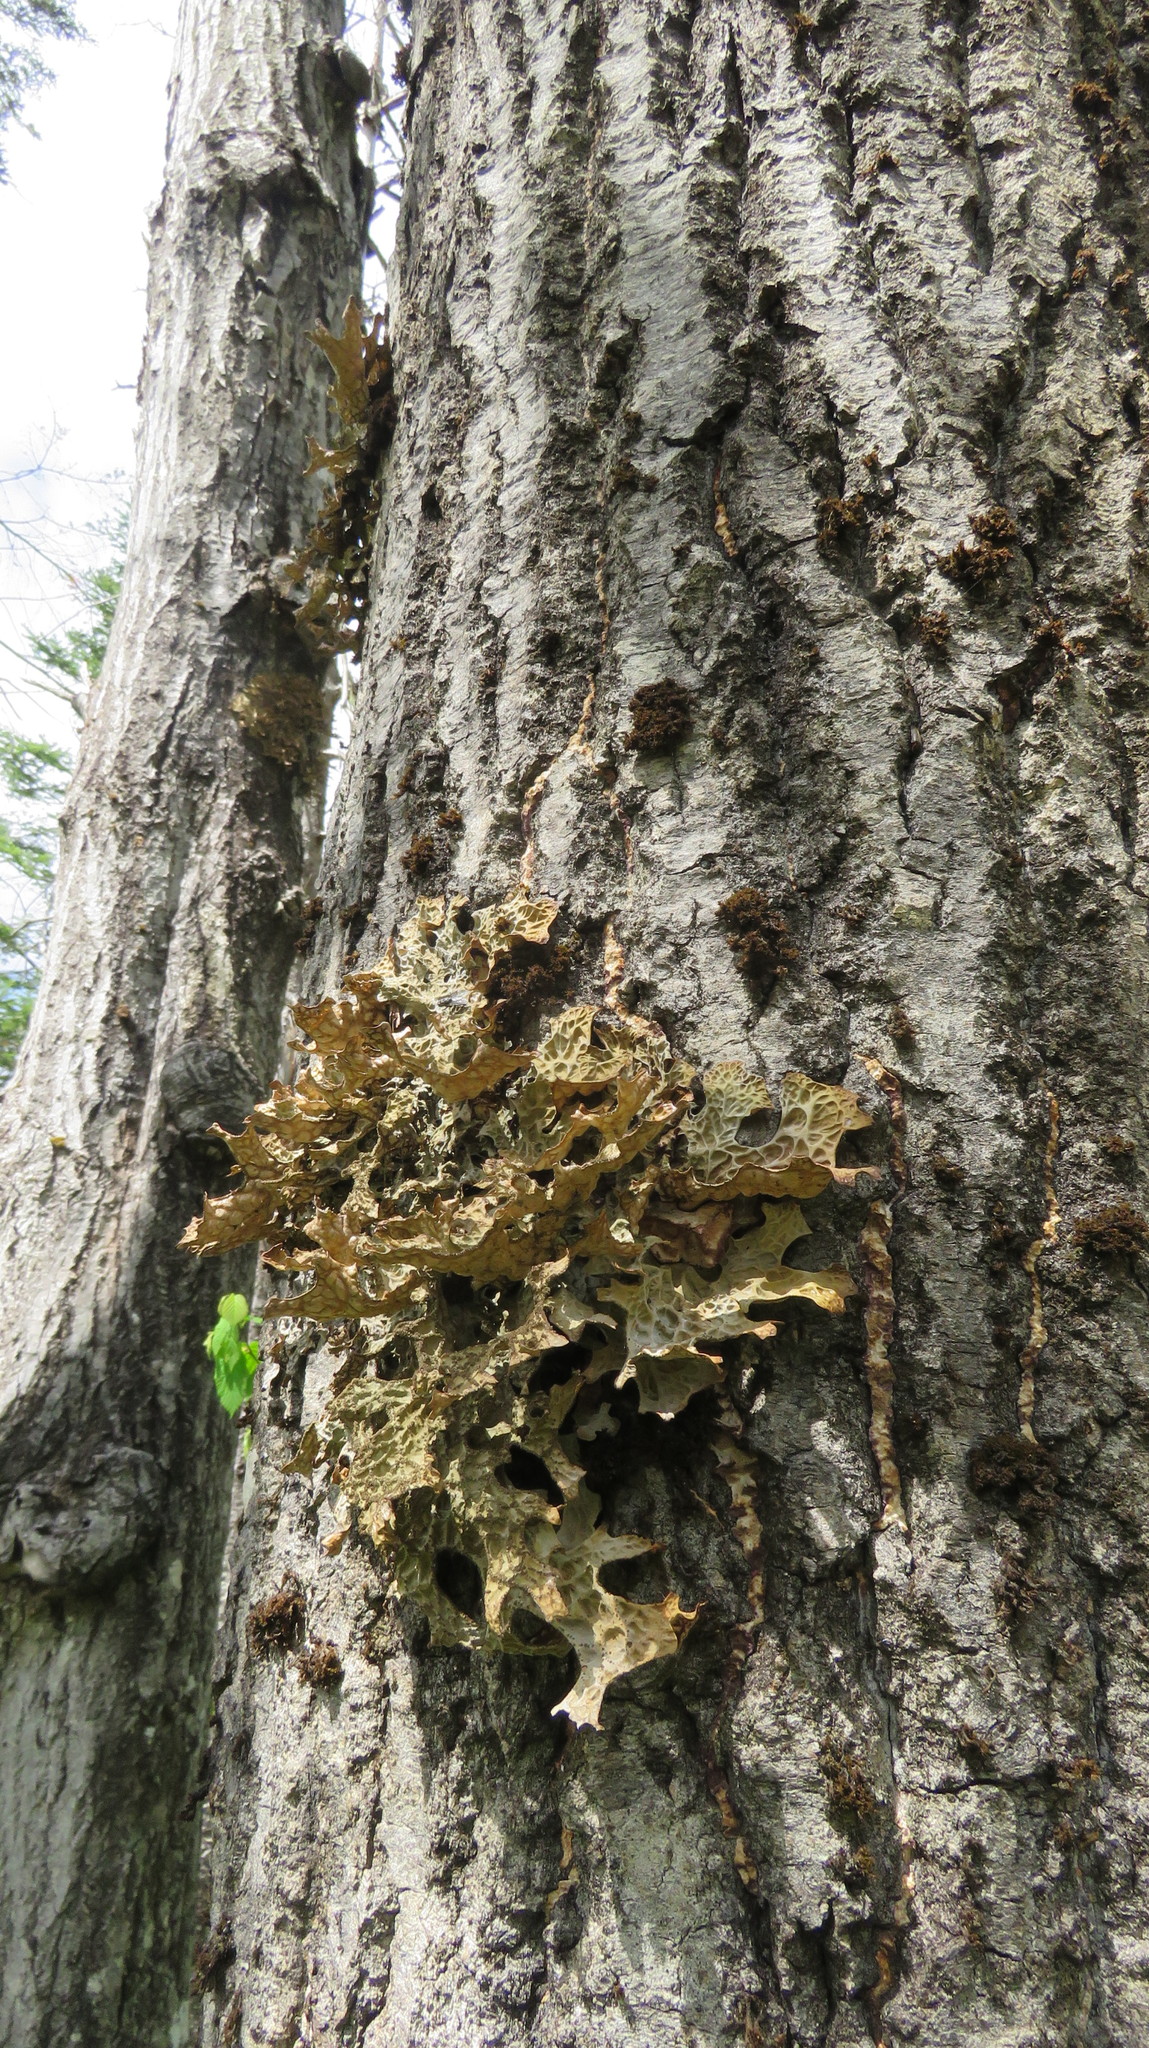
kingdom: Fungi
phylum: Ascomycota
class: Lecanoromycetes
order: Peltigerales
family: Lobariaceae
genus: Lobaria
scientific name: Lobaria pulmonaria
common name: Lungwort
